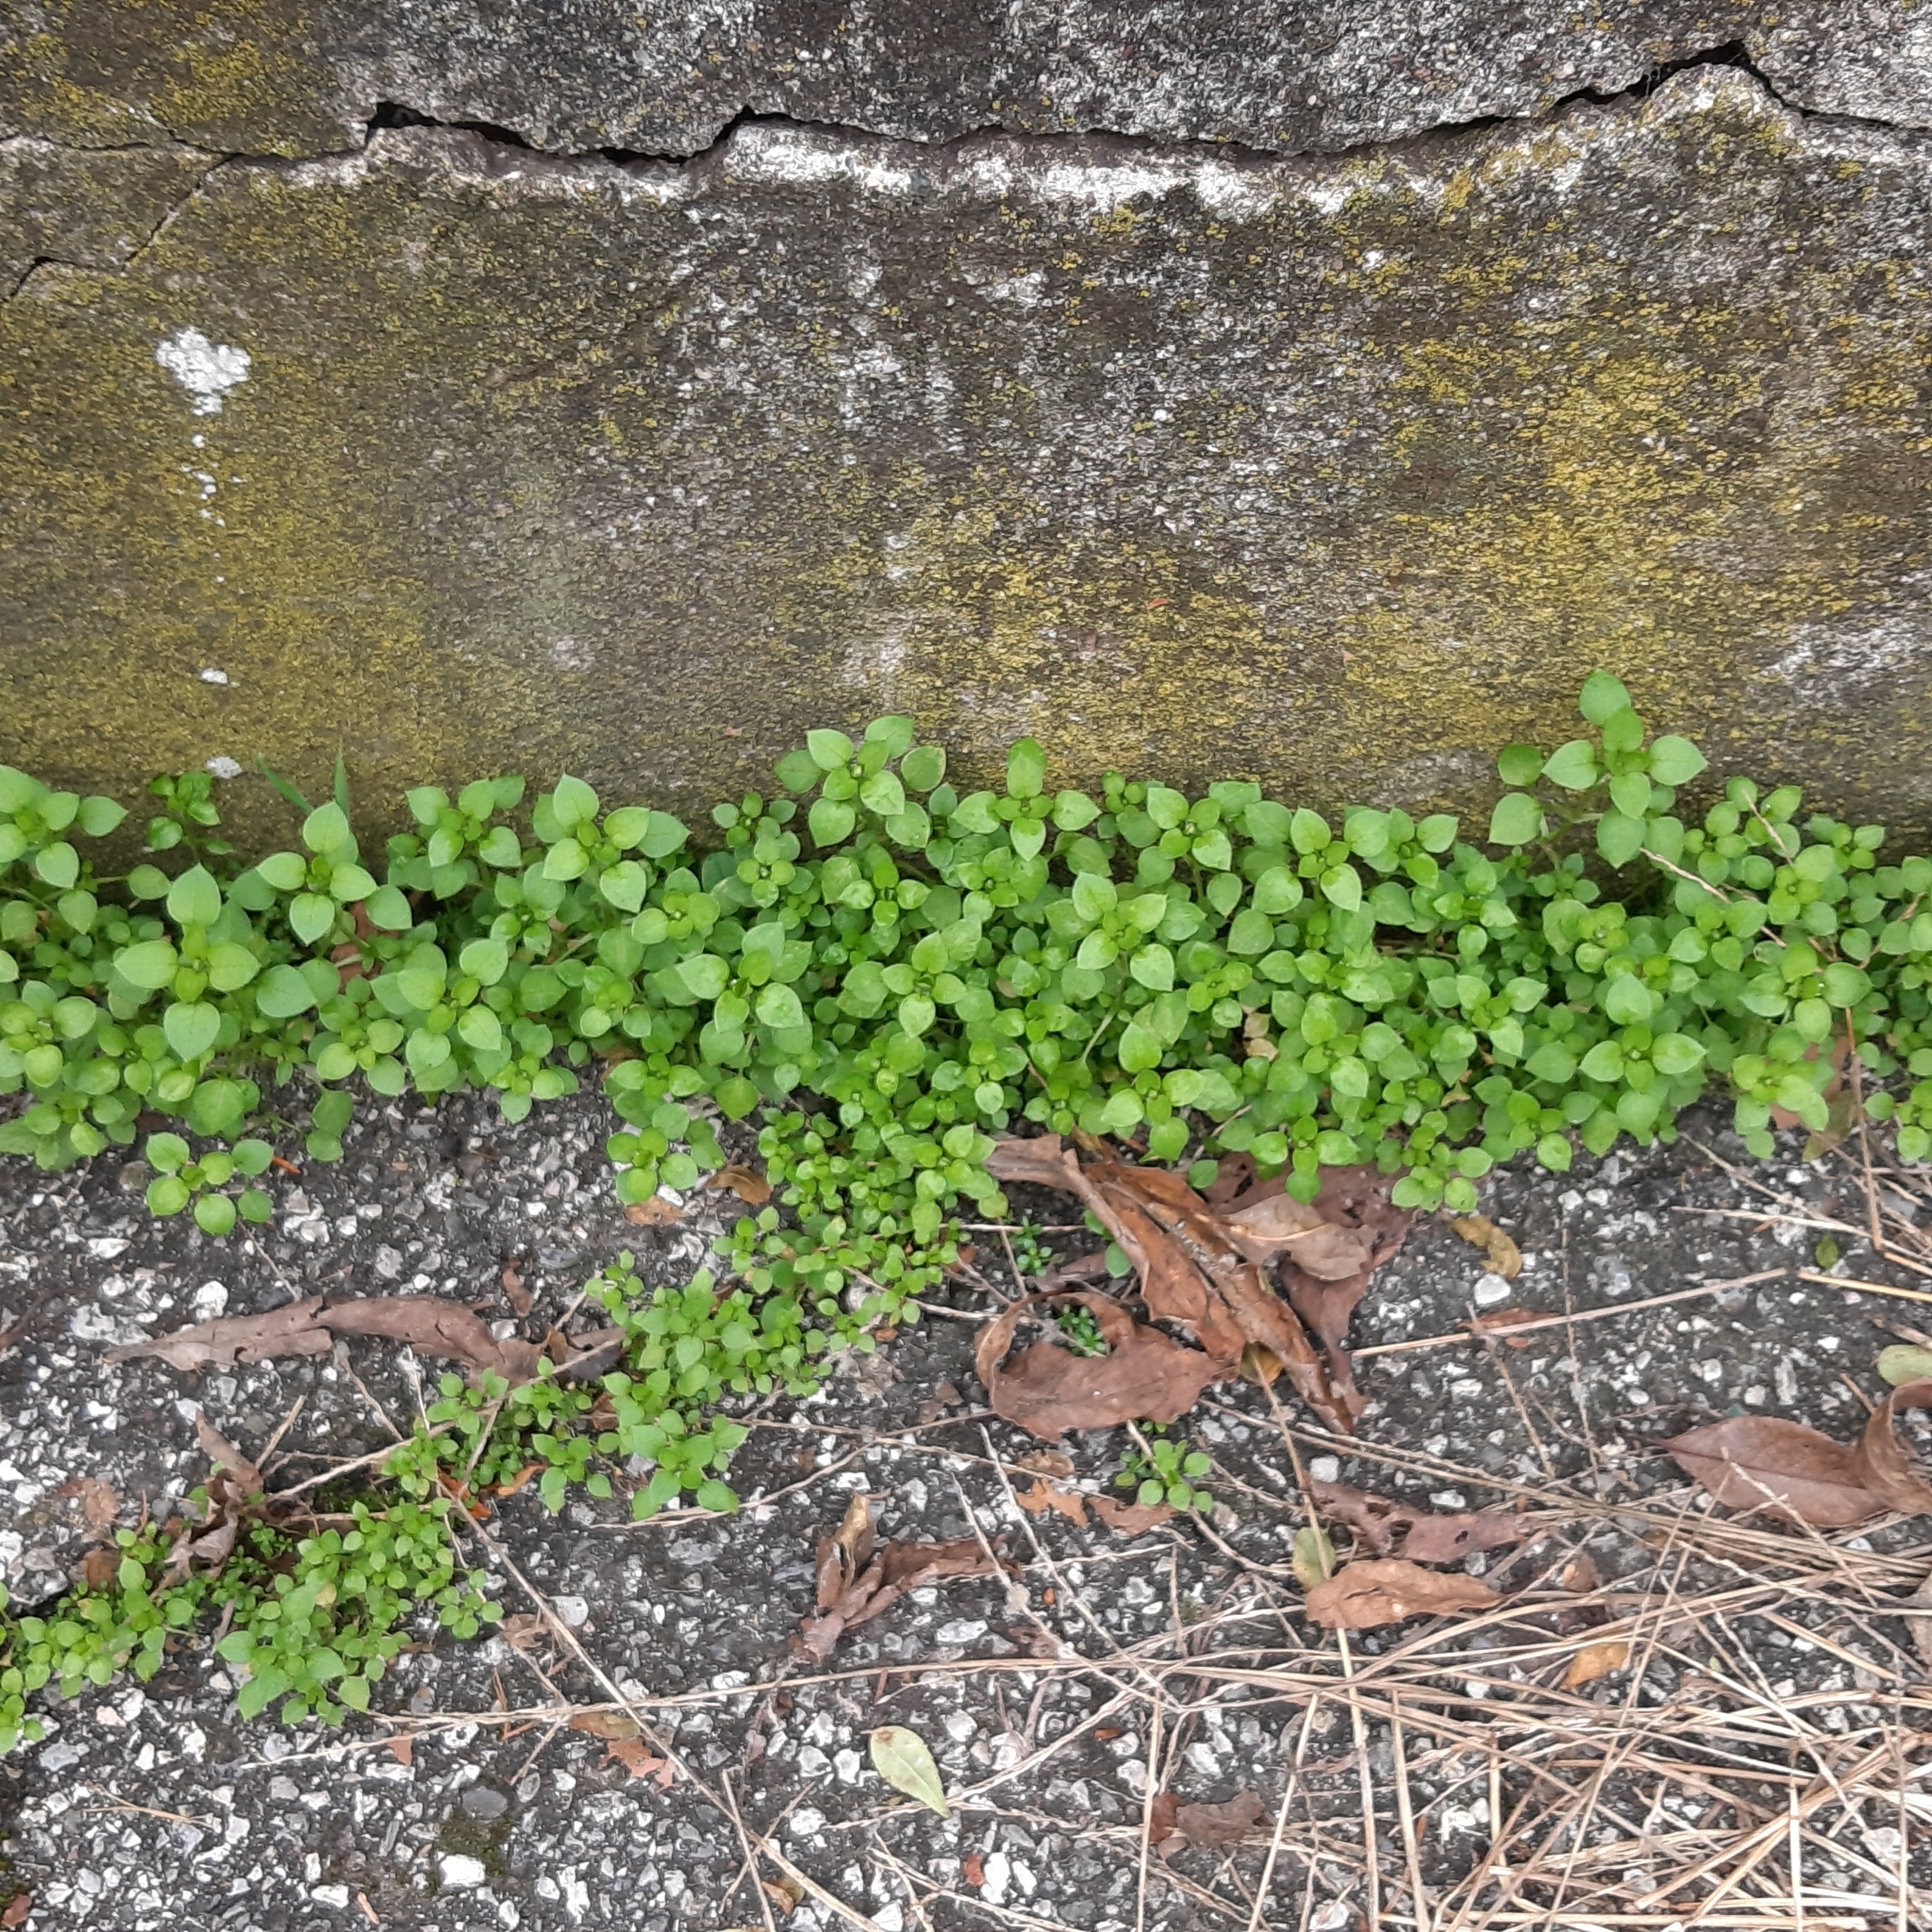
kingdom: Plantae
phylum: Tracheophyta
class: Magnoliopsida
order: Caryophyllales
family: Caryophyllaceae
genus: Stellaria
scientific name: Stellaria media
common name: Common chickweed
